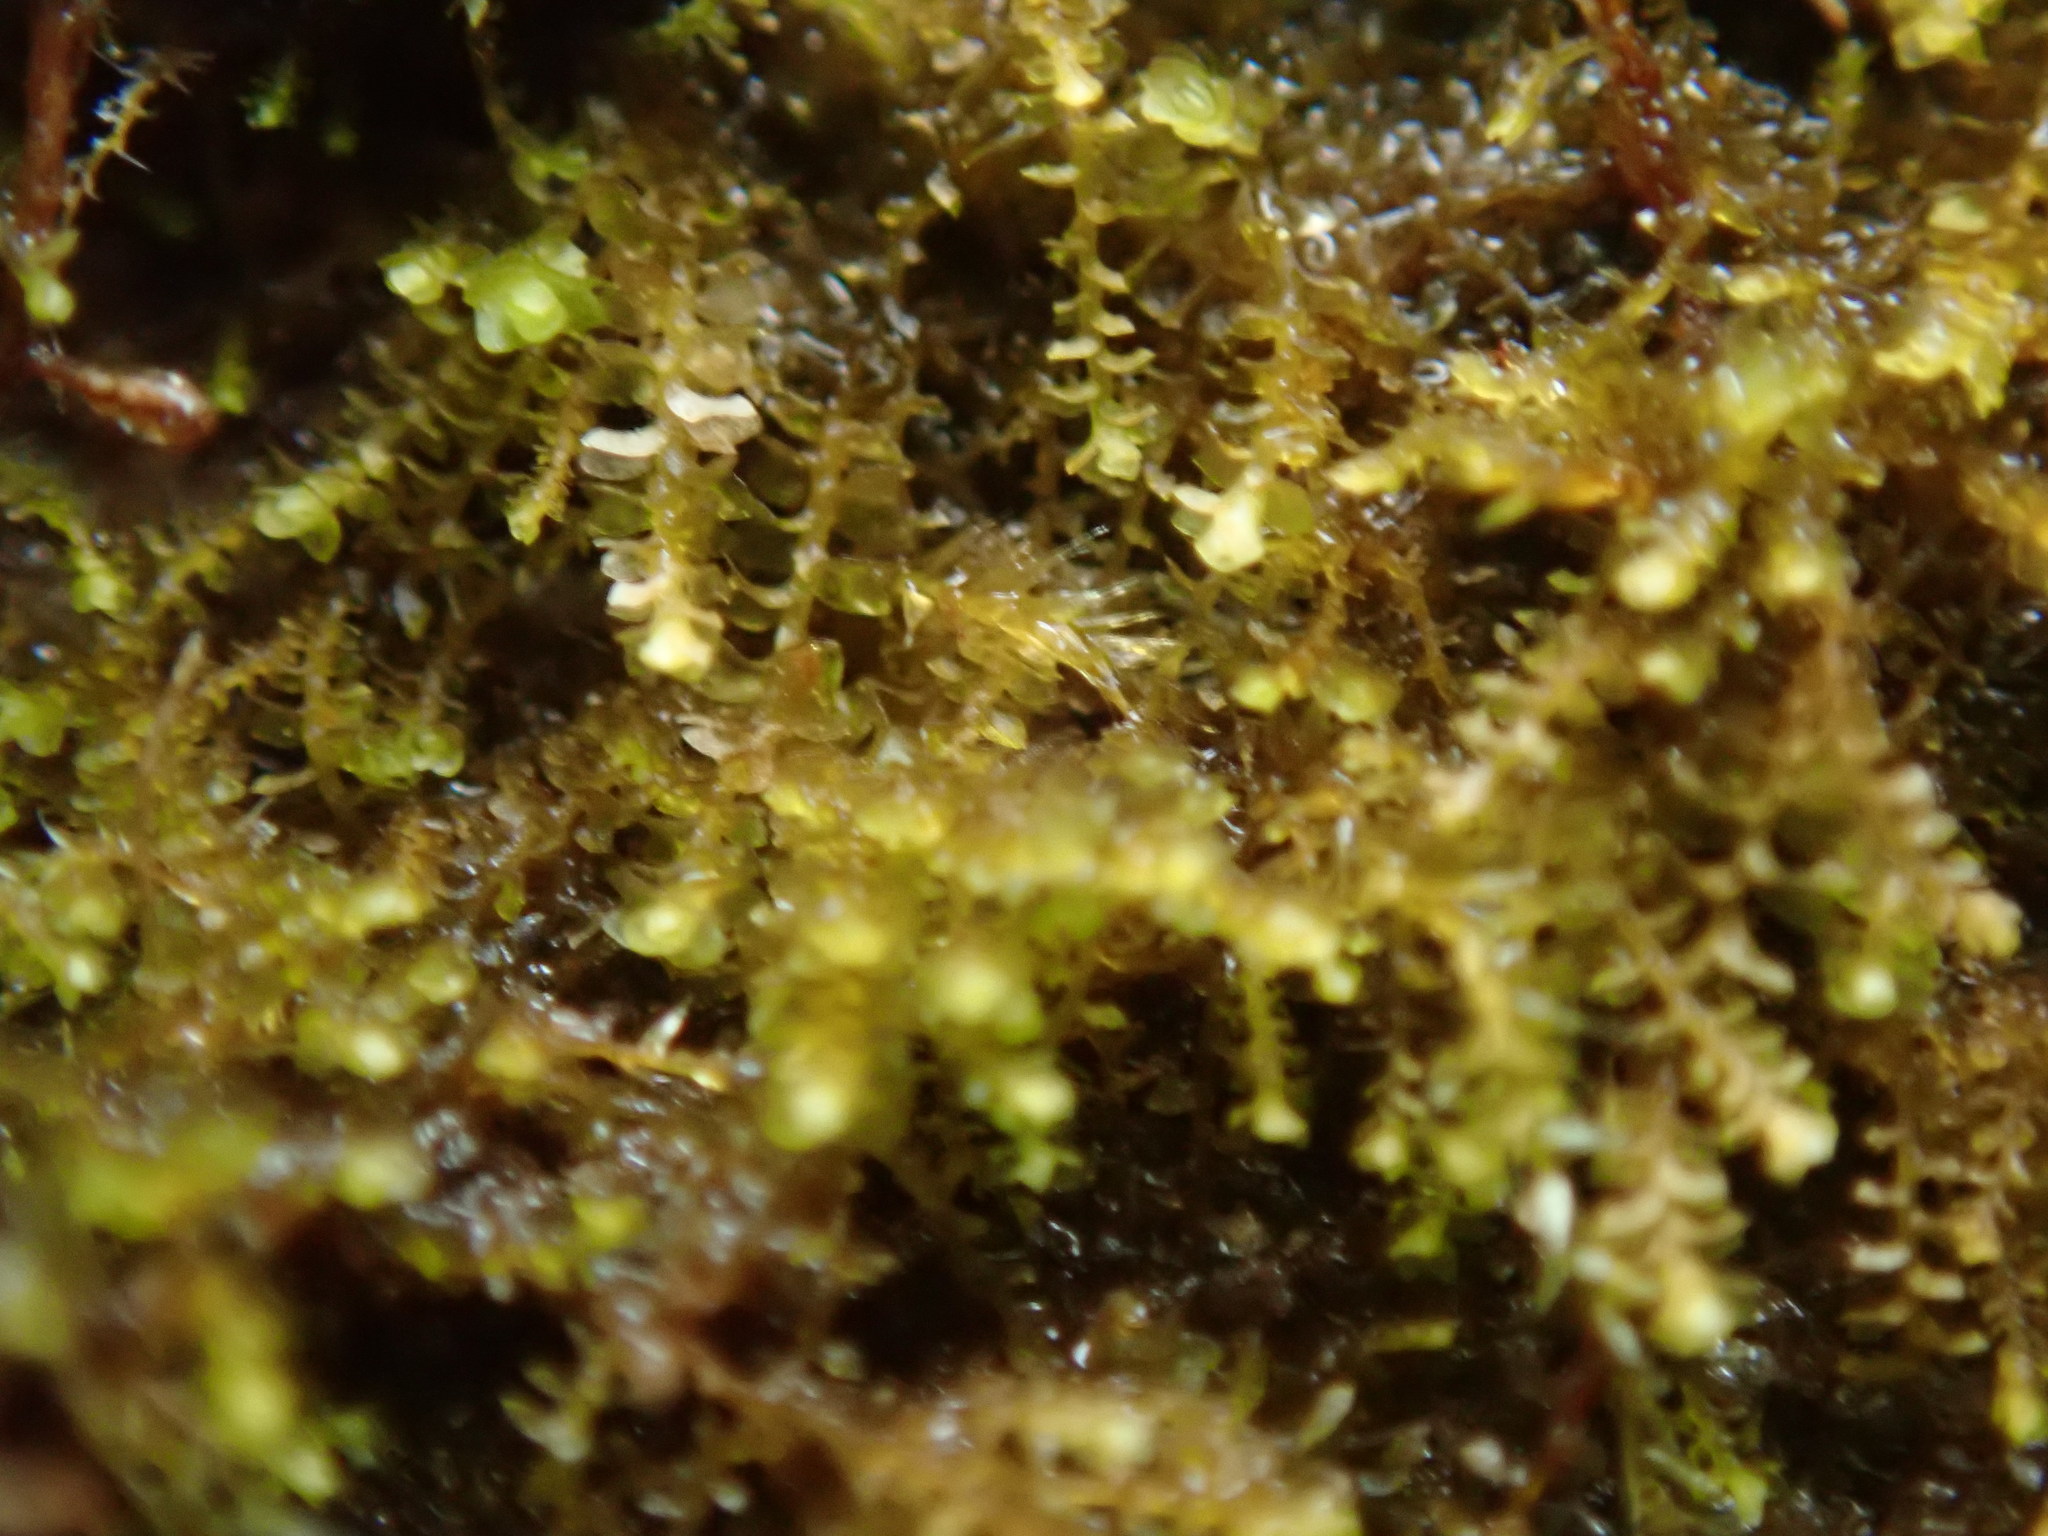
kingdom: Plantae
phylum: Marchantiophyta
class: Jungermanniopsida
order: Jungermanniales
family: Anastrophyllaceae
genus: Sphenolobus
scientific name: Sphenolobus minutus
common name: Comb notchwort
